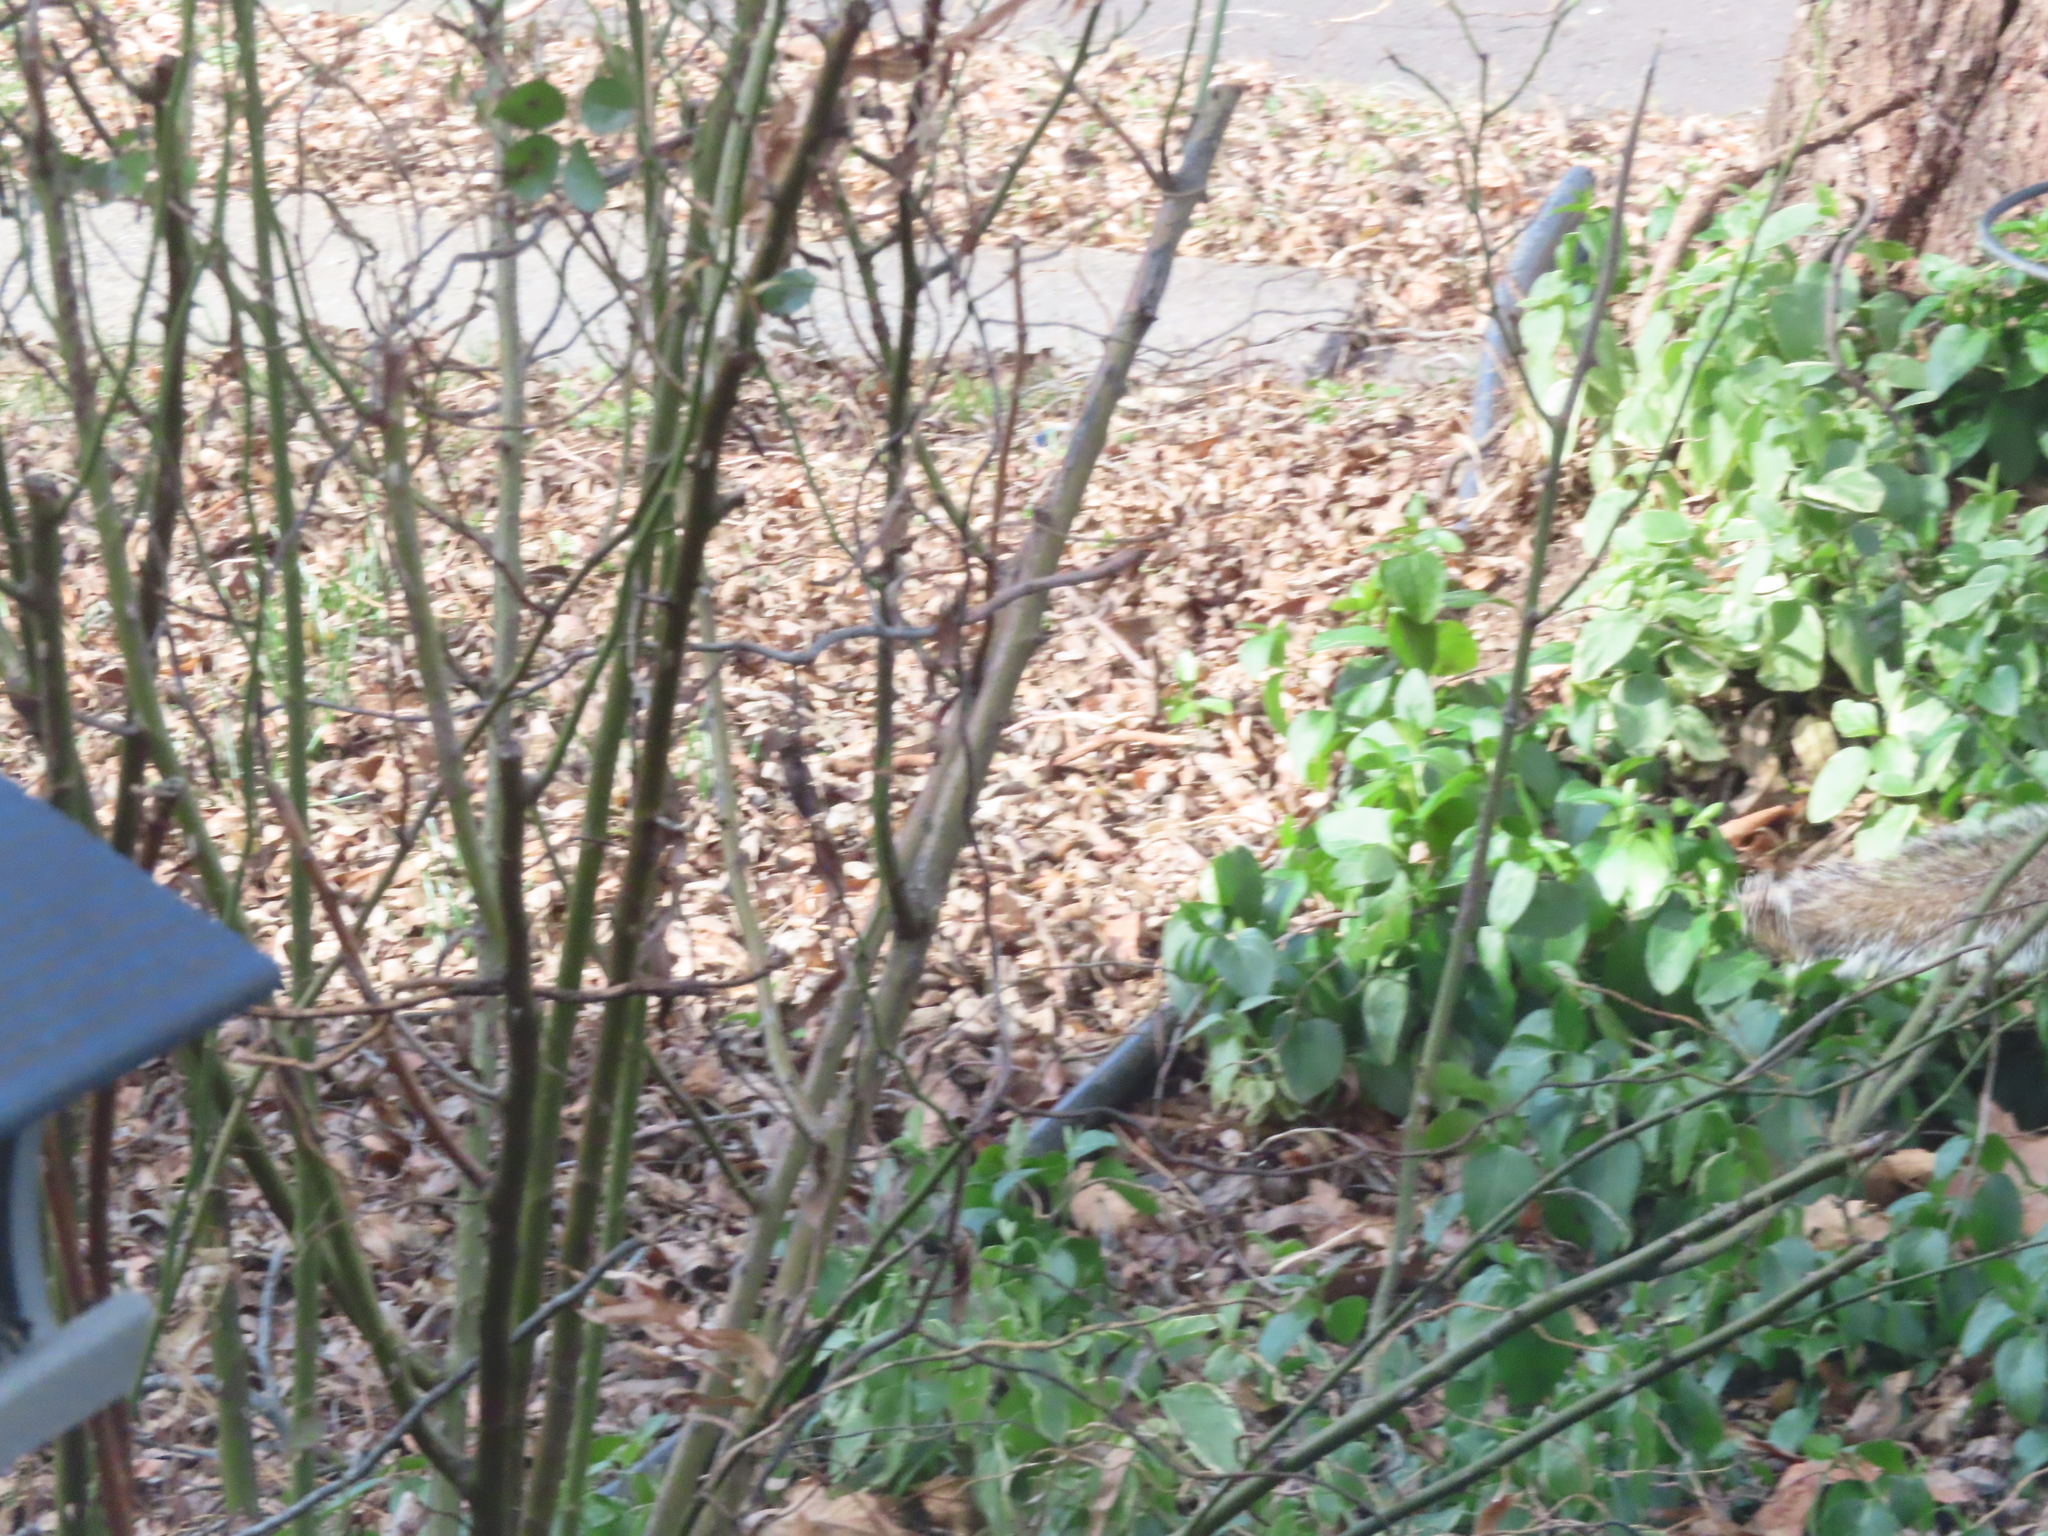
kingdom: Animalia
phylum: Chordata
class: Mammalia
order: Rodentia
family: Sciuridae
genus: Sciurus
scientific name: Sciurus carolinensis
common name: Eastern gray squirrel
